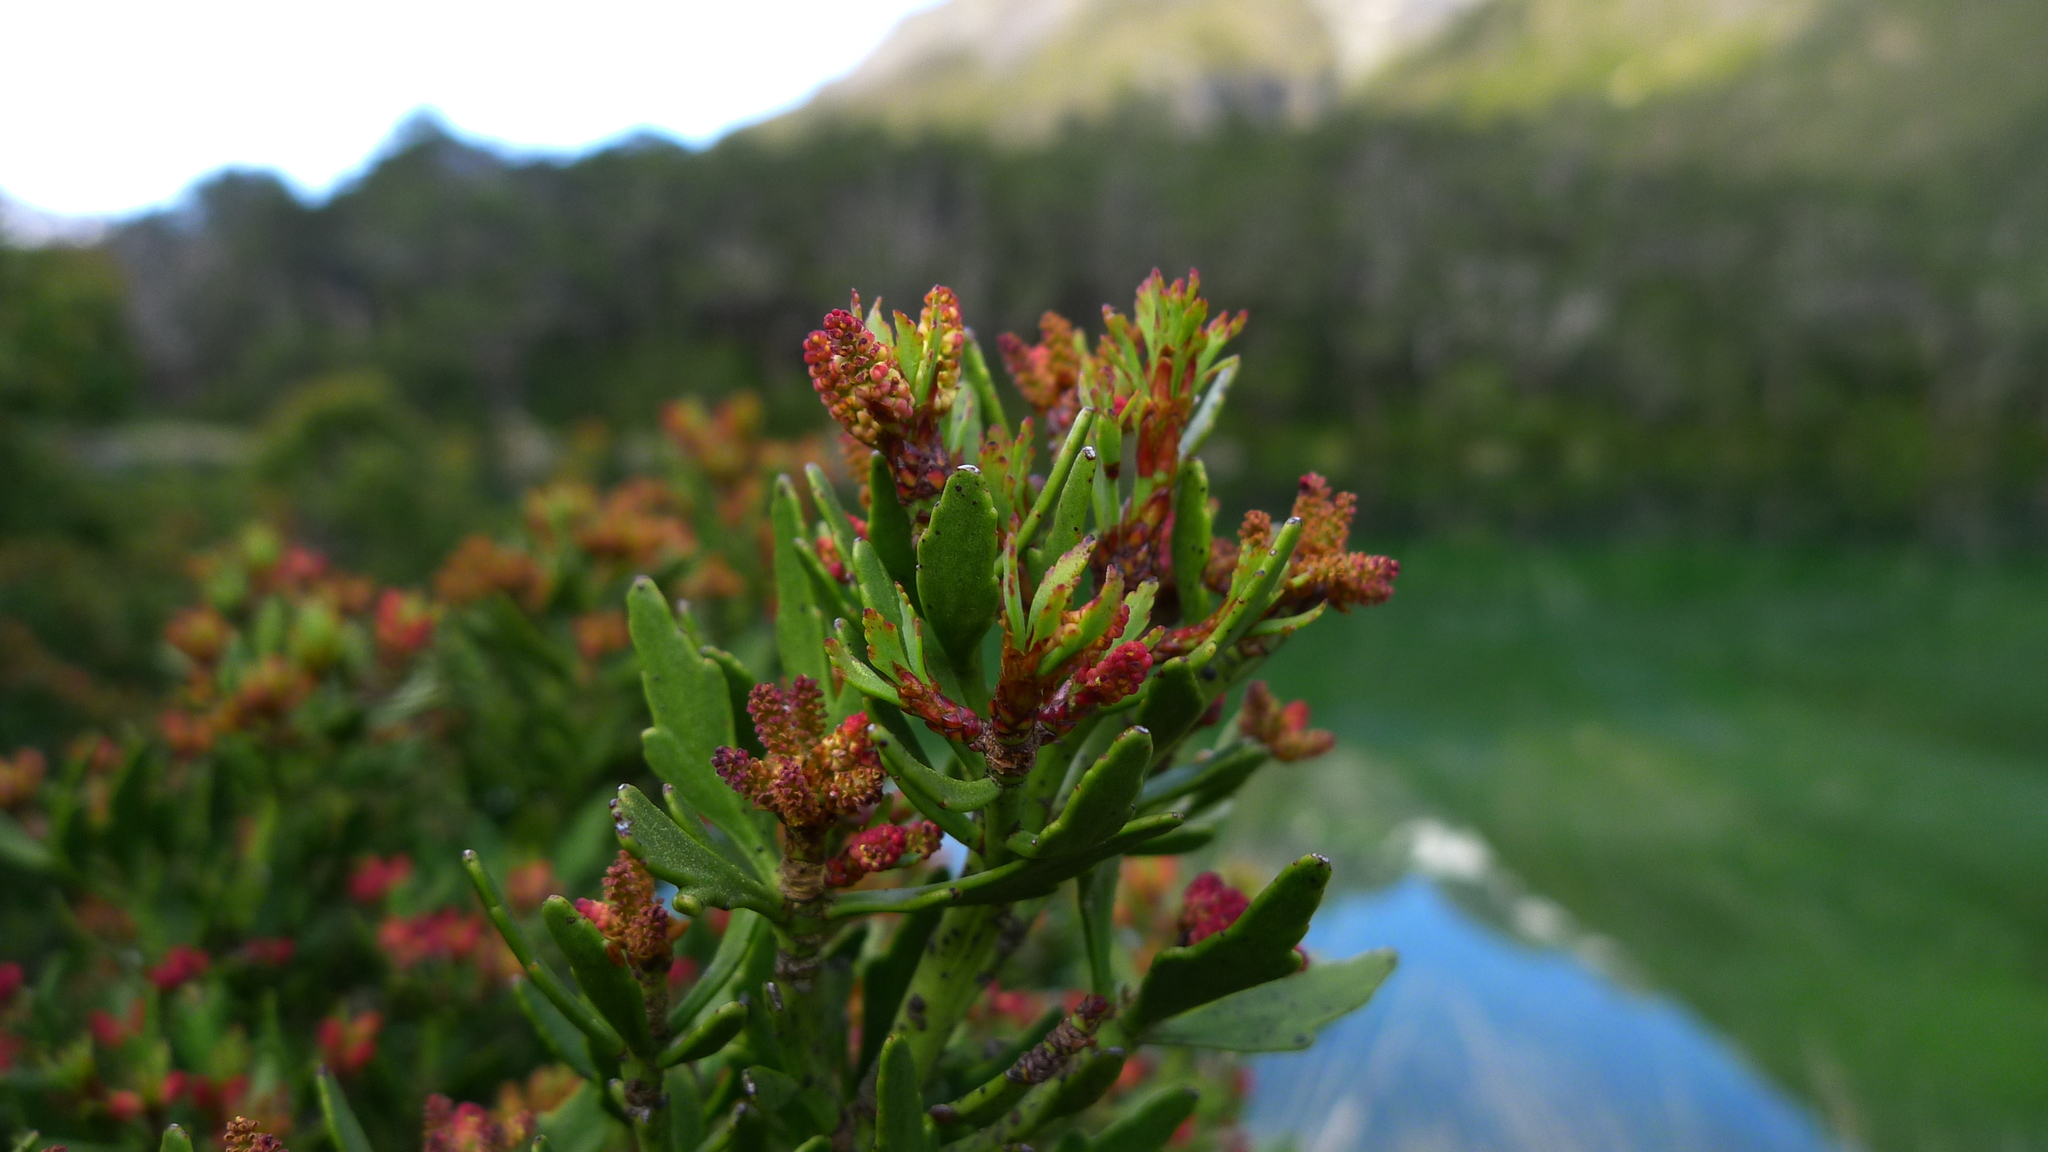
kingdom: Plantae
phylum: Tracheophyta
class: Pinopsida
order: Pinales
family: Phyllocladaceae
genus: Phyllocladus
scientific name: Phyllocladus trichomanoides
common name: Celery pine
